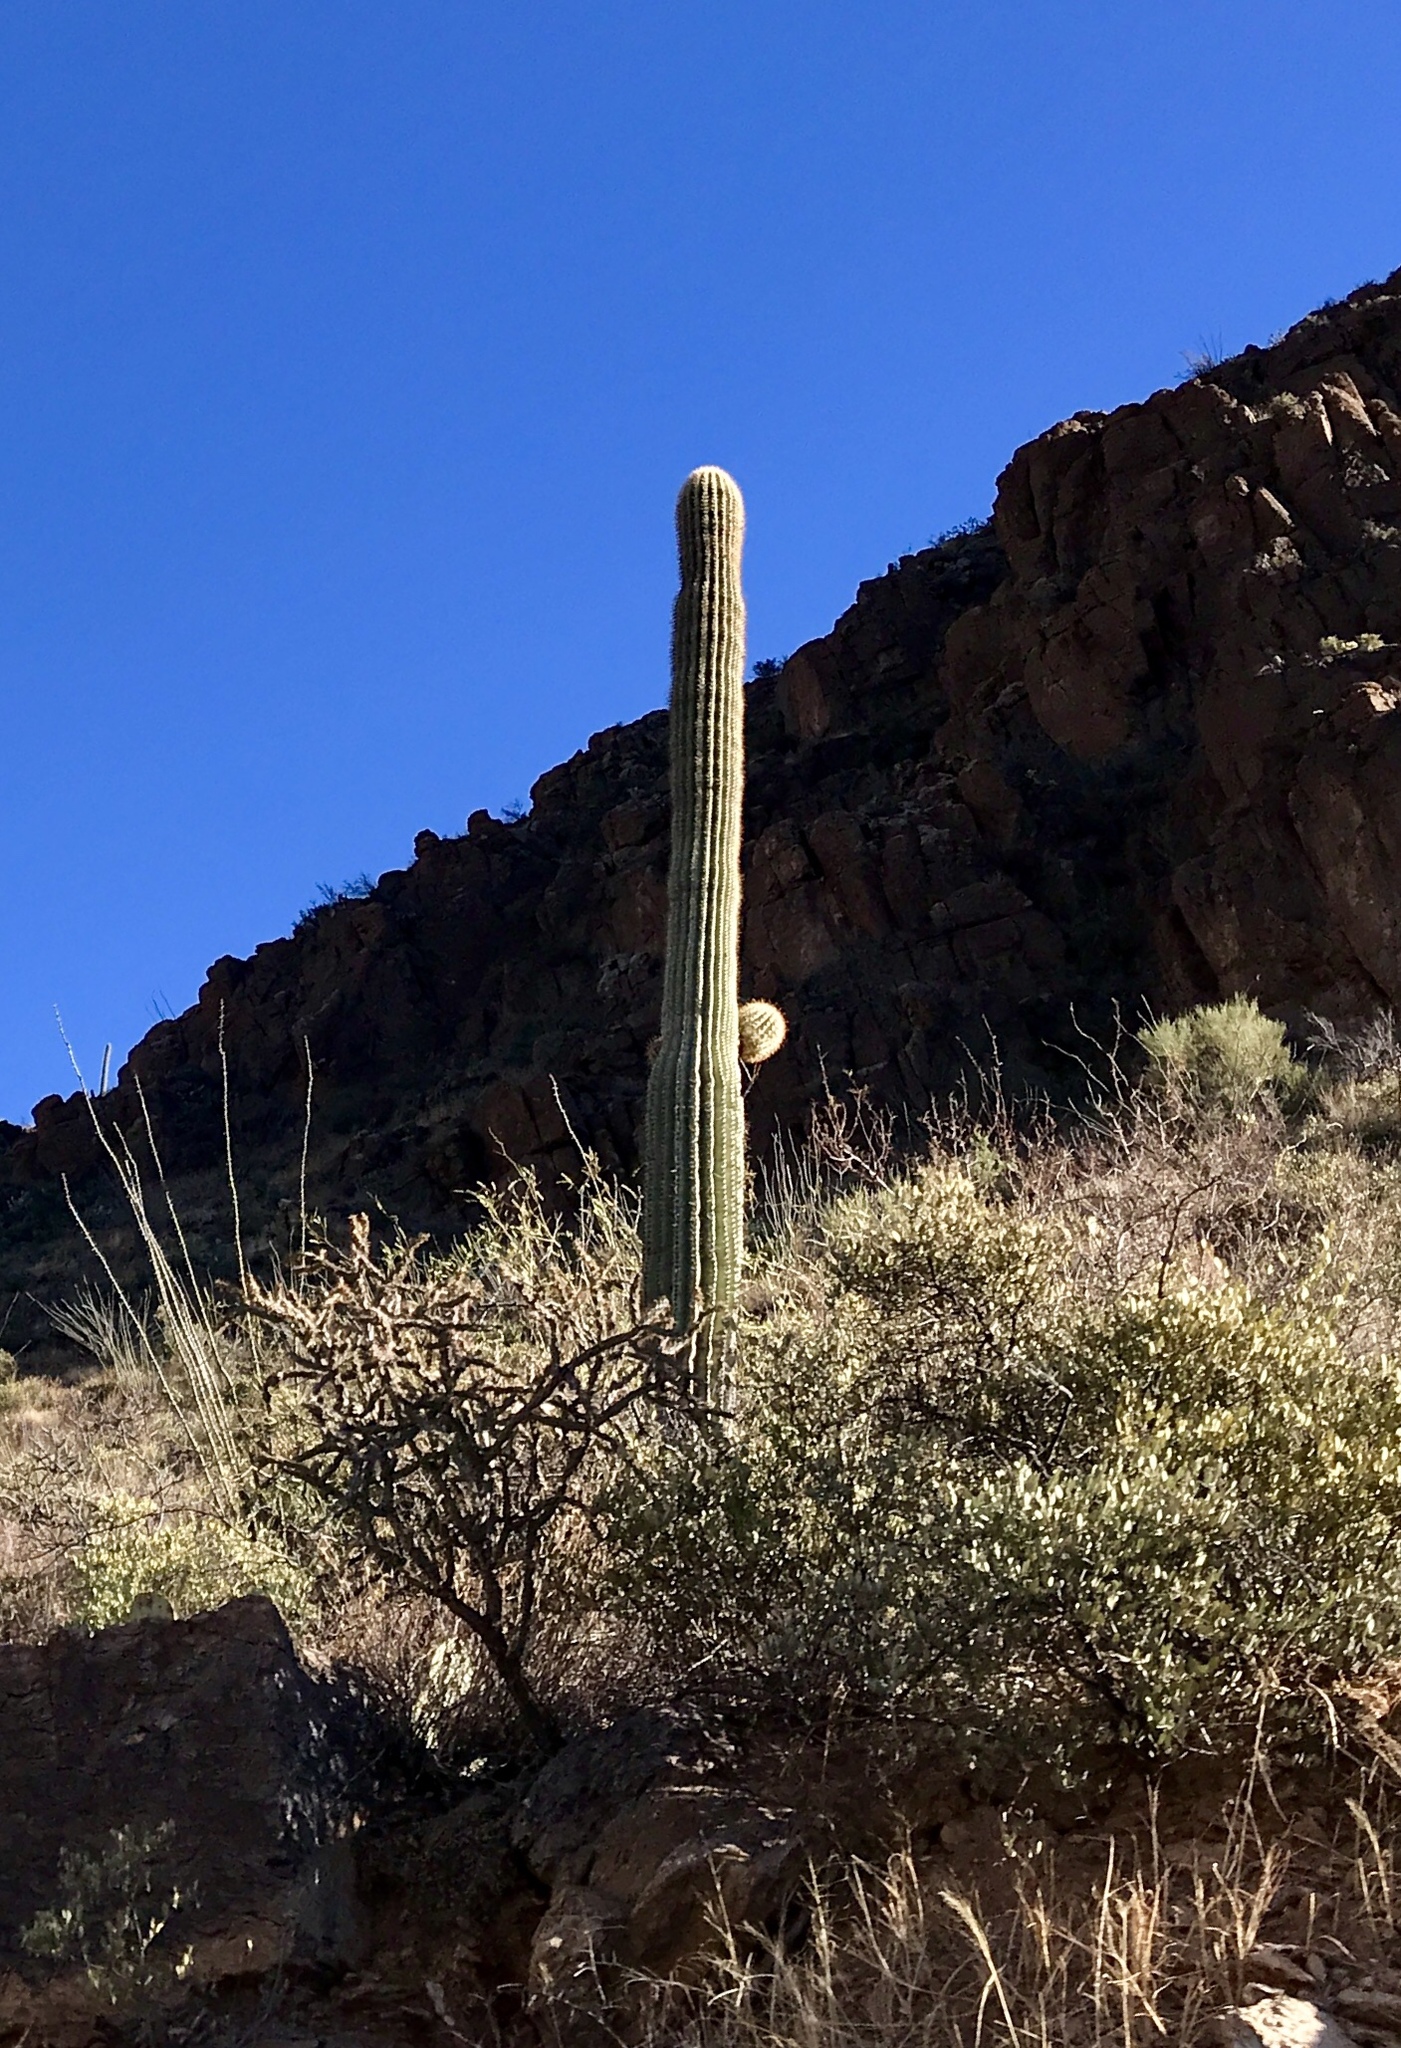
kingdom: Plantae
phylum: Tracheophyta
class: Magnoliopsida
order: Caryophyllales
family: Cactaceae
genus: Carnegiea
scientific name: Carnegiea gigantea
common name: Saguaro
